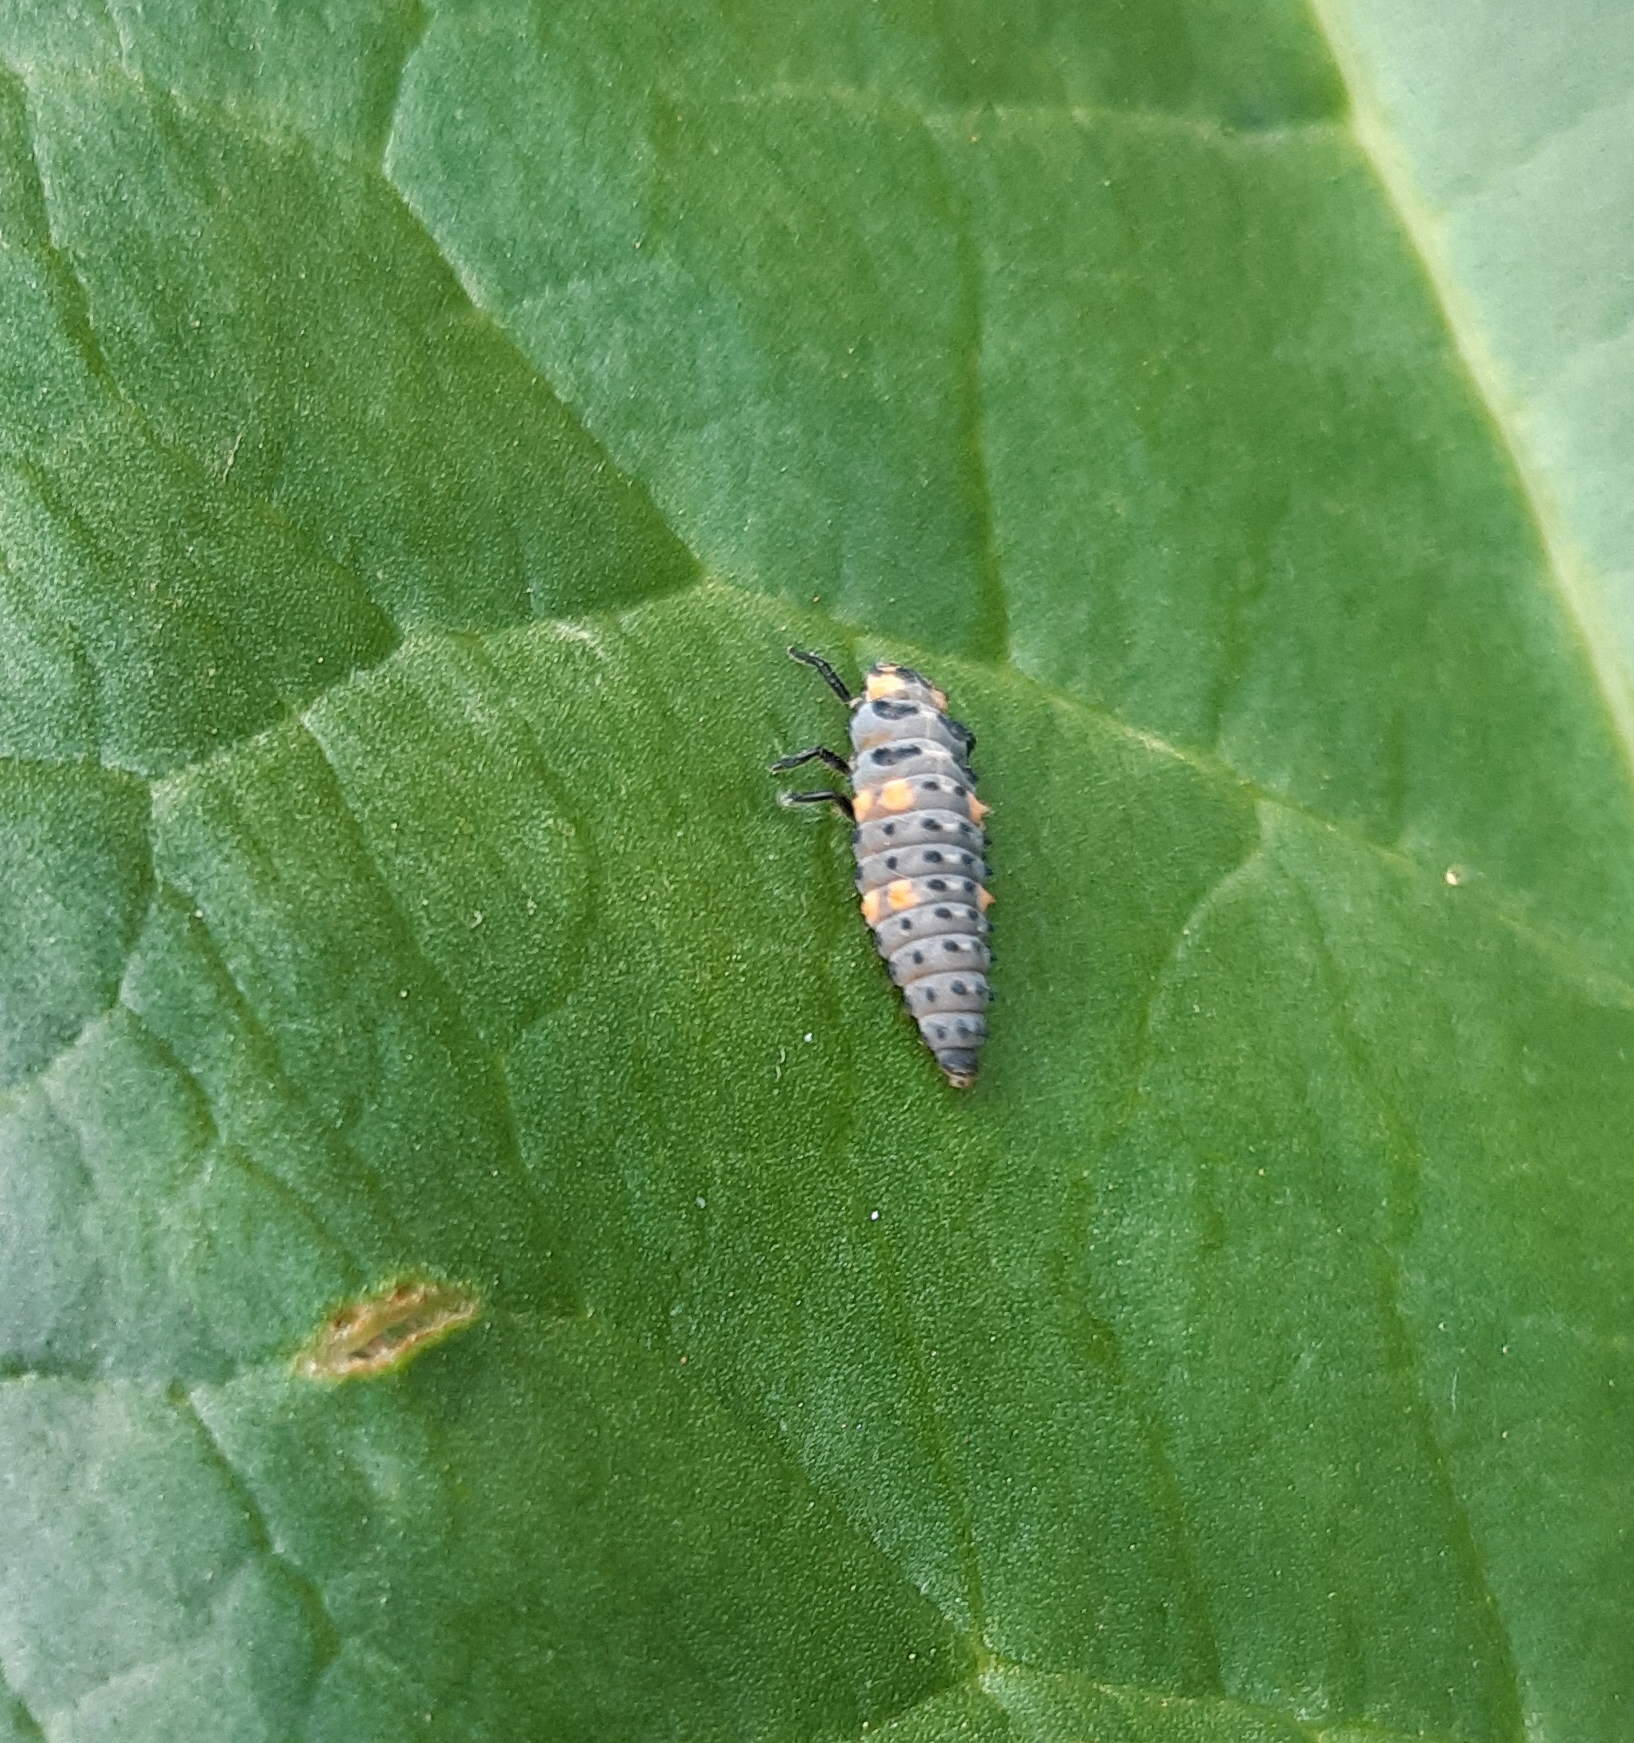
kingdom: Animalia
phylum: Arthropoda
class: Insecta
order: Coleoptera
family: Coccinellidae
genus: Coccinella
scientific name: Coccinella septempunctata
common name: Sevenspotted lady beetle
